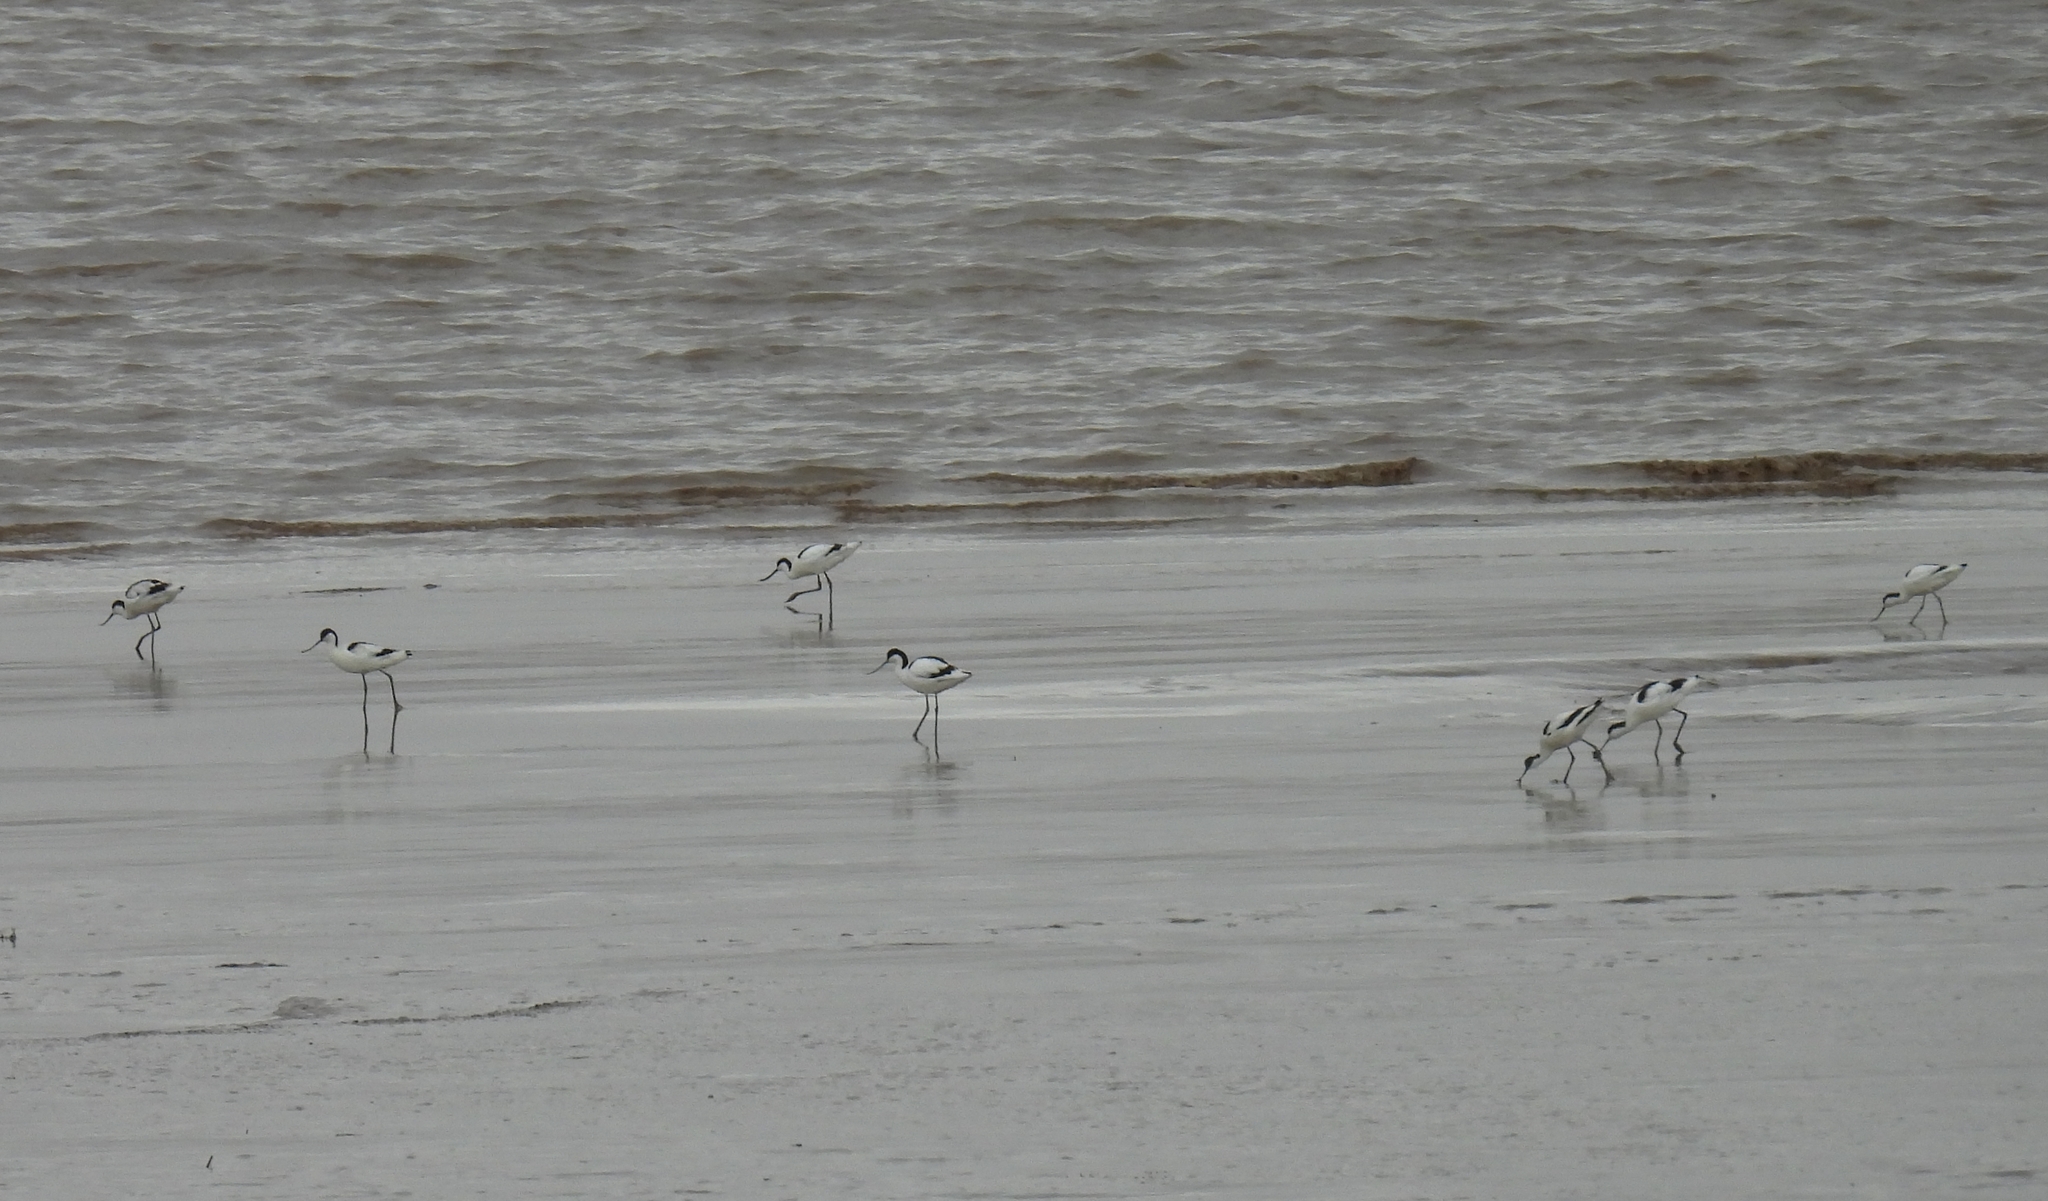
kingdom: Animalia
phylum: Chordata
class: Aves
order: Charadriiformes
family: Recurvirostridae
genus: Recurvirostra
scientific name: Recurvirostra avosetta
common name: Pied avocet
